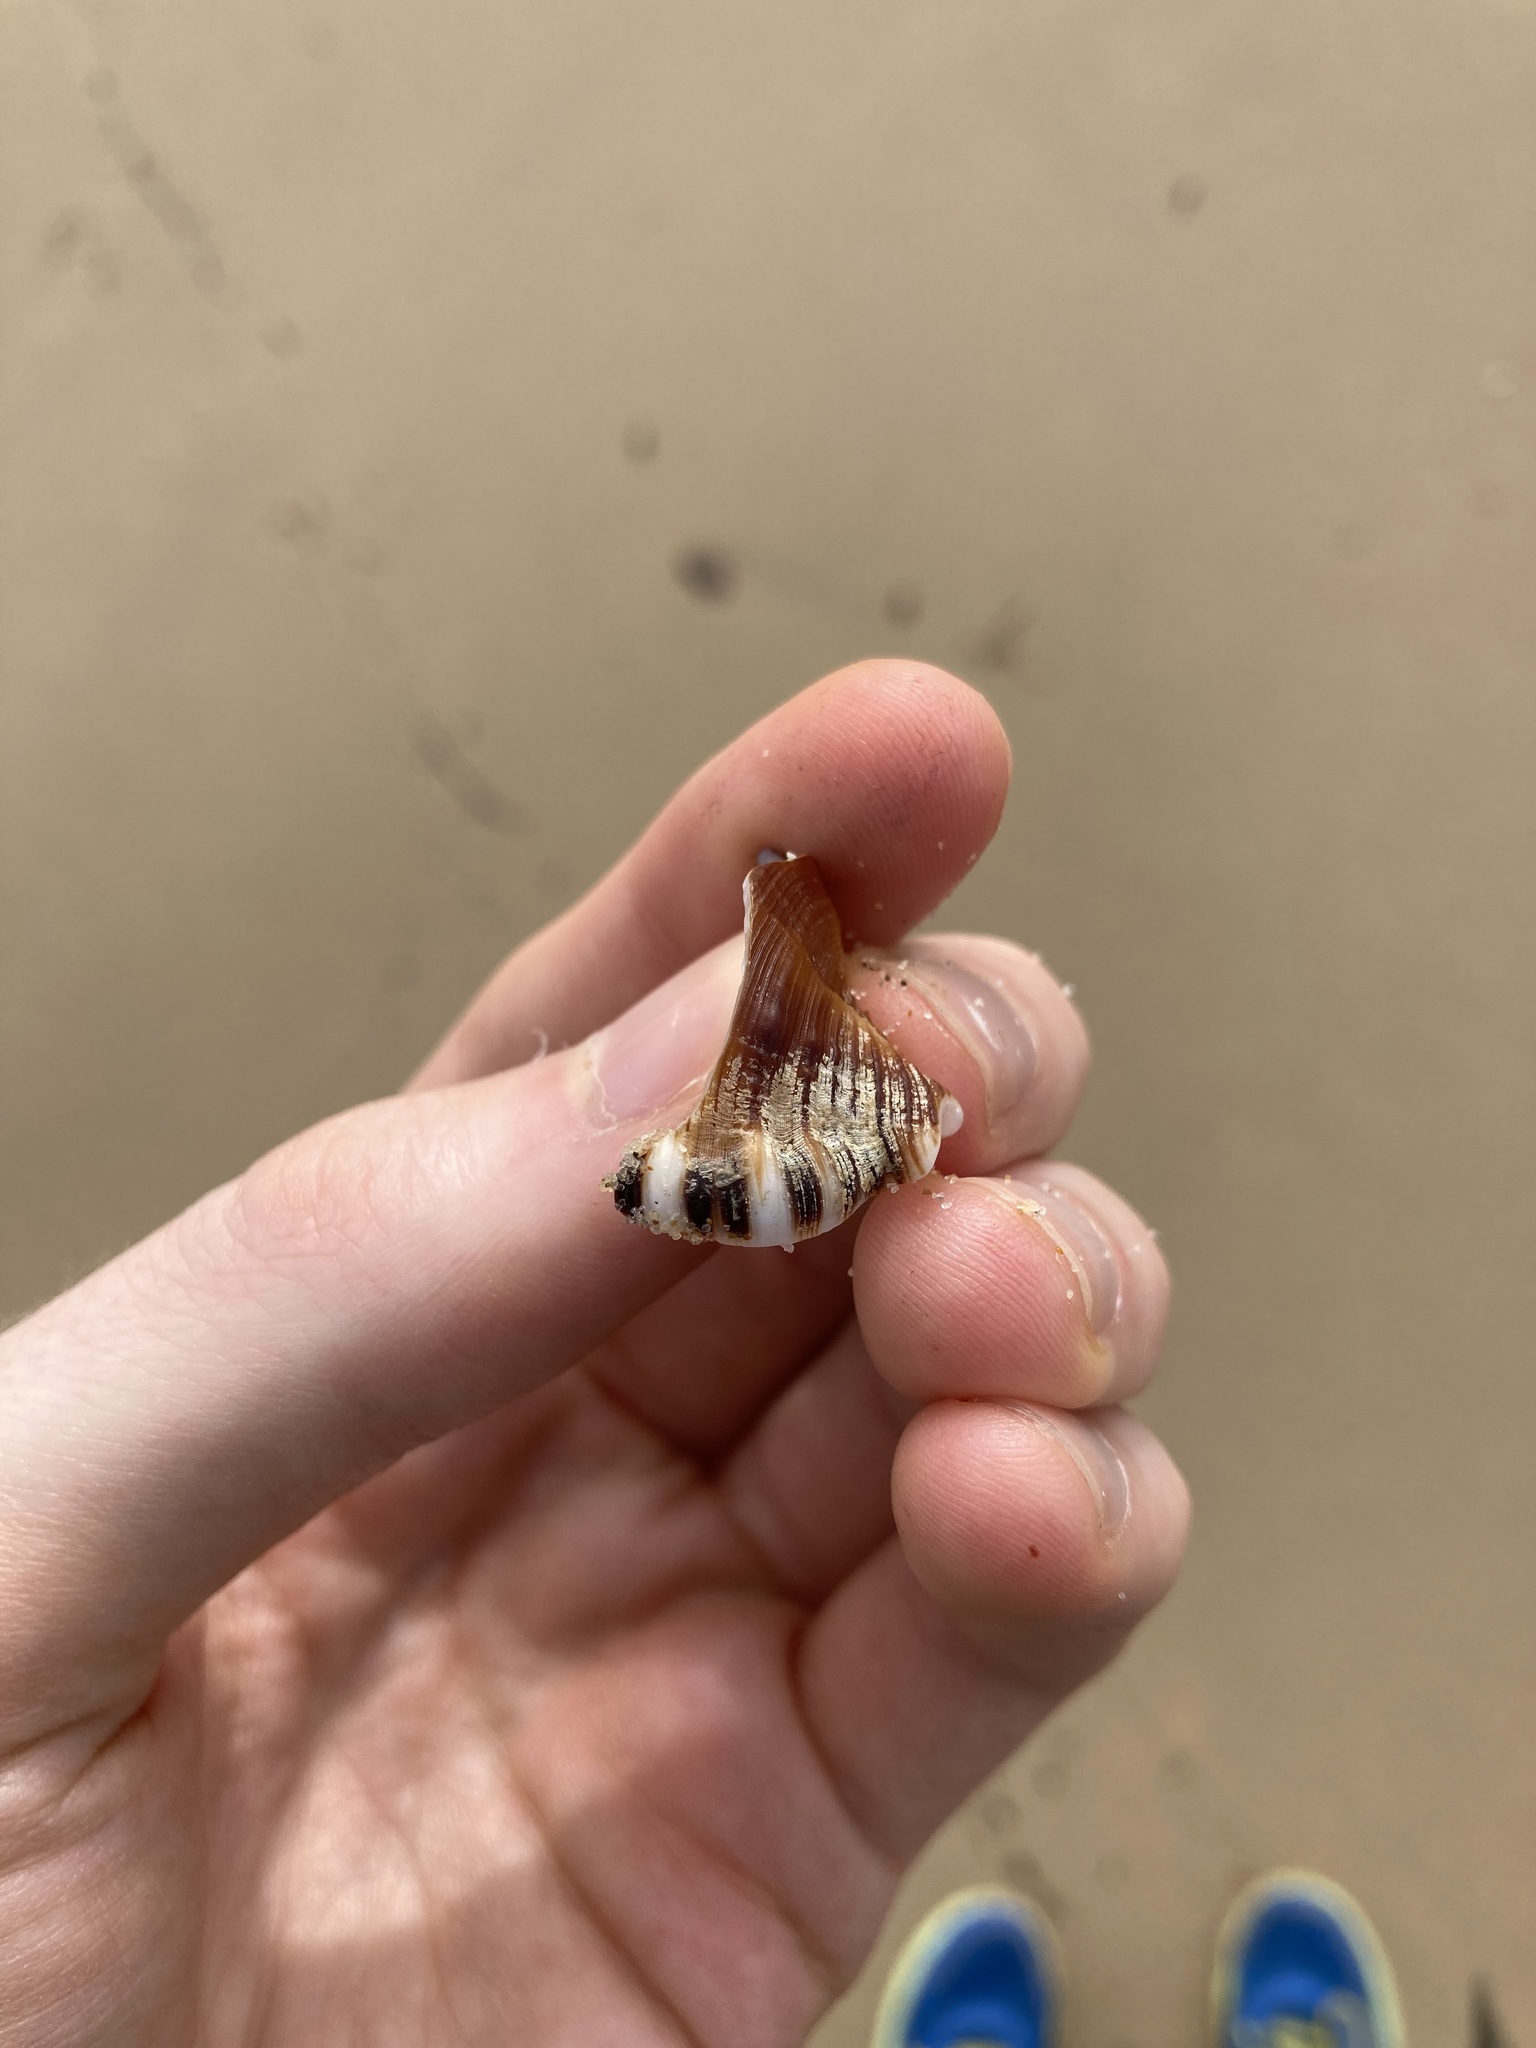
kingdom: Animalia
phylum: Mollusca
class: Gastropoda
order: Littorinimorpha
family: Ranellidae
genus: Ranella
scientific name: Ranella australasia
